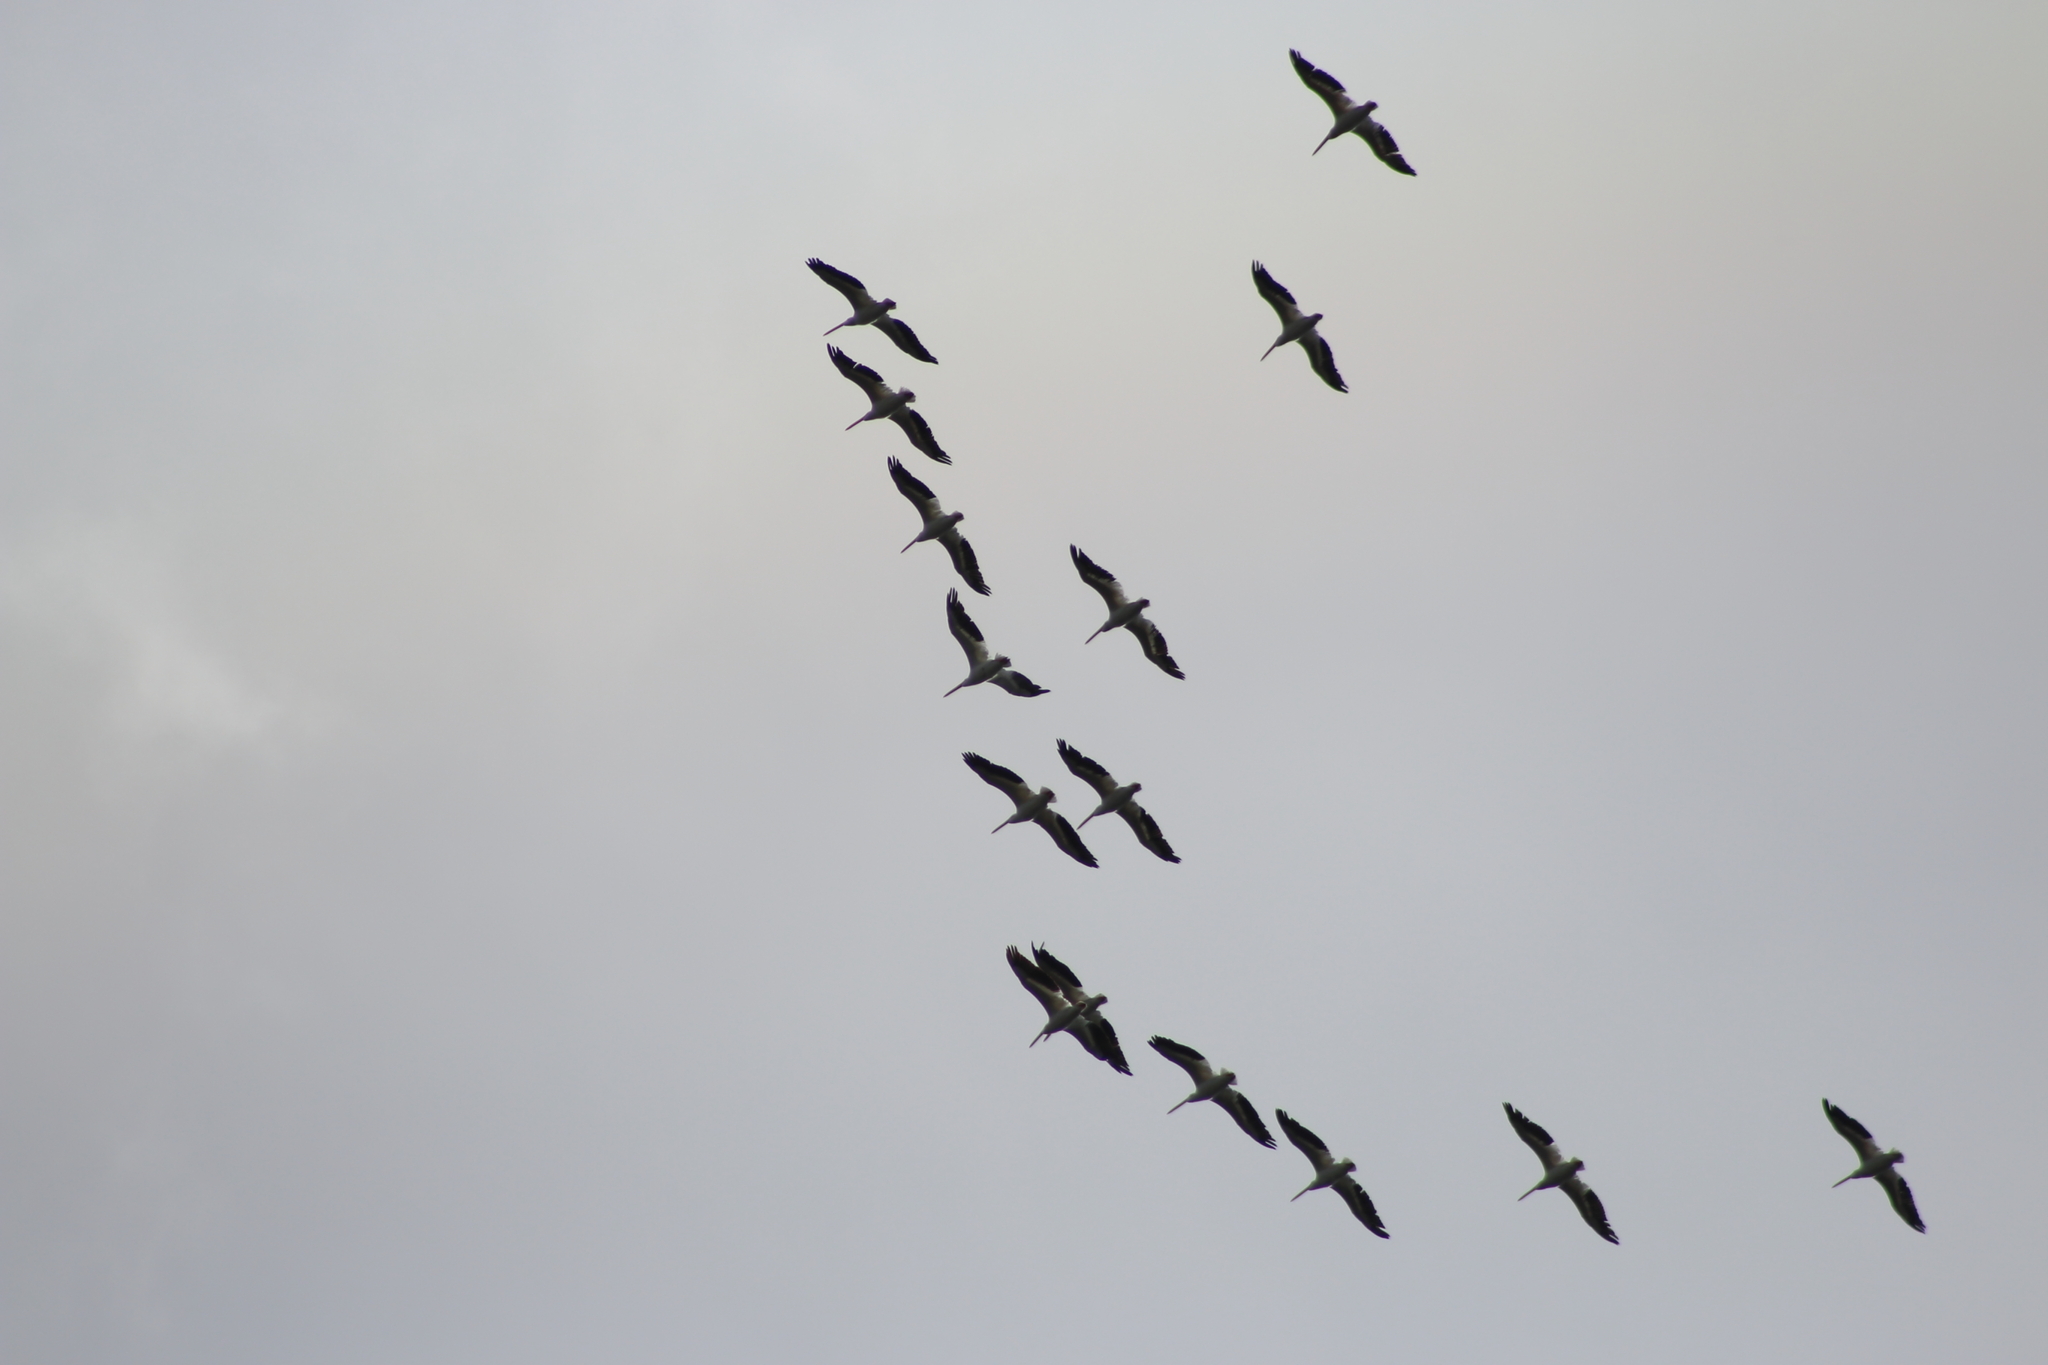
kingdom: Animalia
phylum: Chordata
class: Aves
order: Pelecaniformes
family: Pelecanidae
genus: Pelecanus
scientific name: Pelecanus erythrorhynchos
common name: American white pelican
